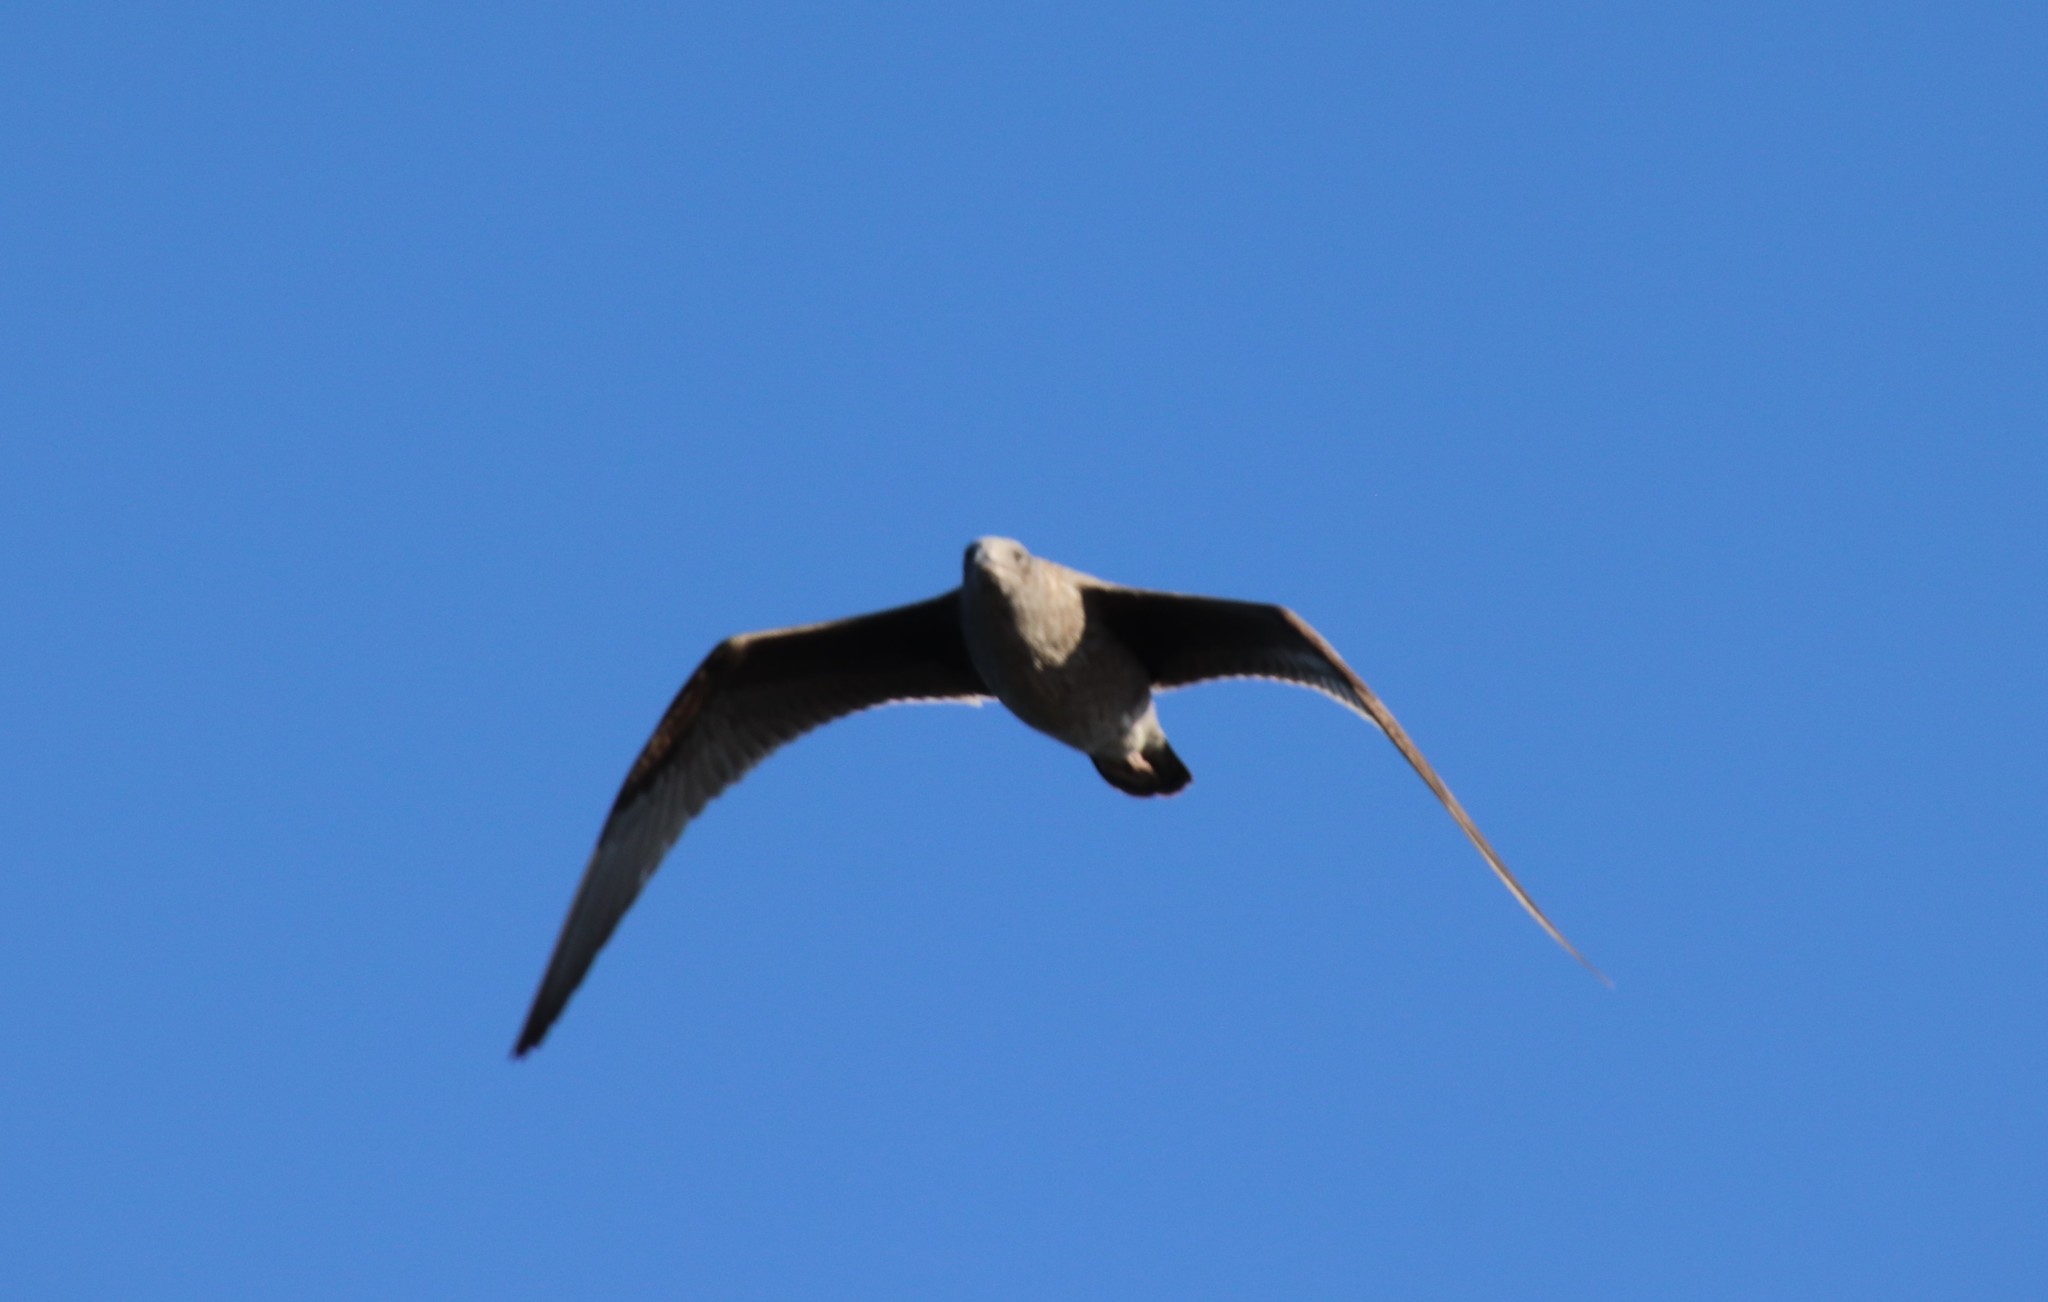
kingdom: Animalia
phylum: Chordata
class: Aves
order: Charadriiformes
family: Laridae
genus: Larus
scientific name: Larus occidentalis
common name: Western gull
